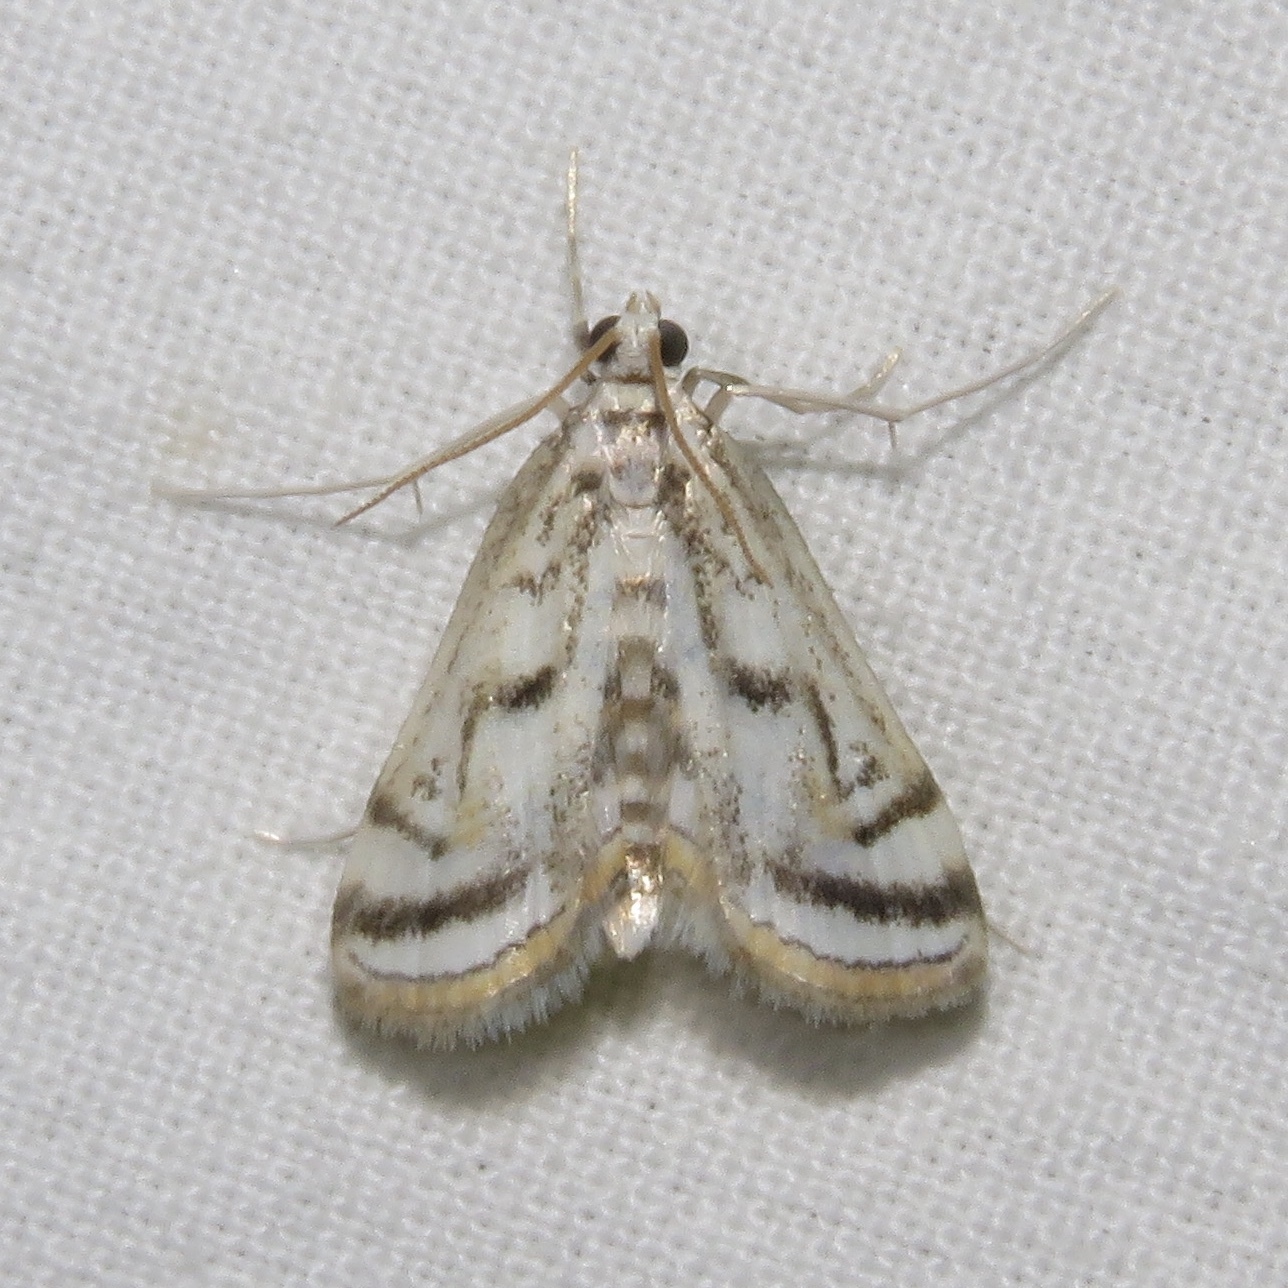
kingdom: Animalia
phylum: Arthropoda
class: Insecta
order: Lepidoptera
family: Crambidae
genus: Parapoynx
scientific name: Parapoynx badiusalis
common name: Chestnut-marked pondweed moth
